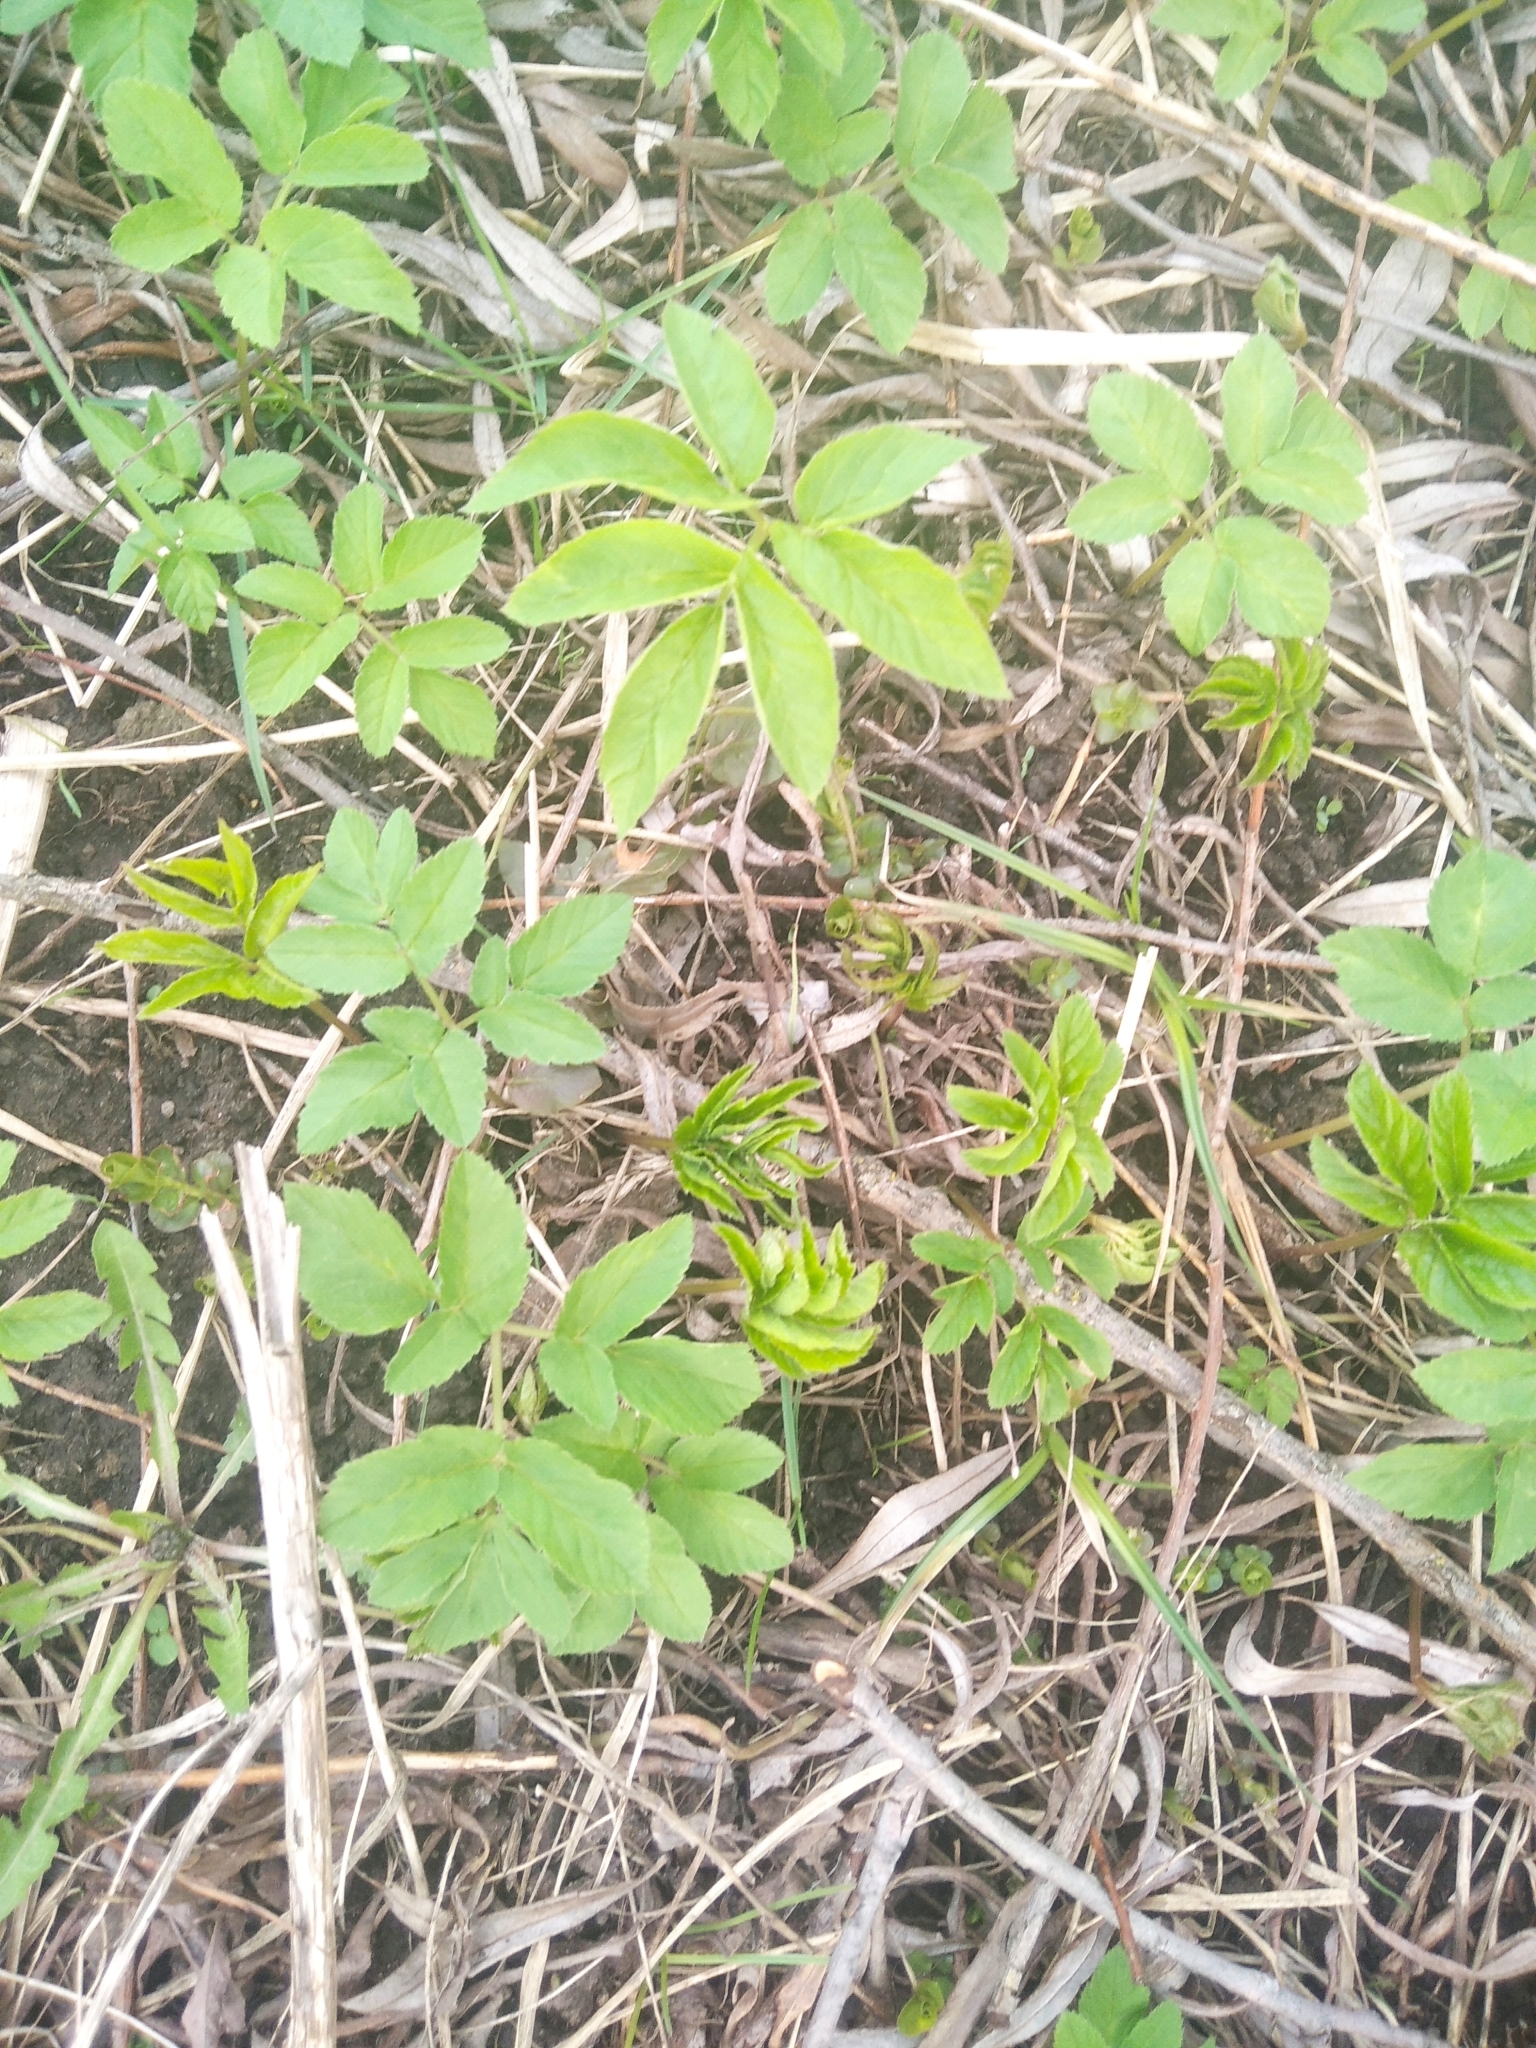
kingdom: Plantae
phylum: Tracheophyta
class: Magnoliopsida
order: Apiales
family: Apiaceae
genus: Aegopodium
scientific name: Aegopodium podagraria
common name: Ground-elder
